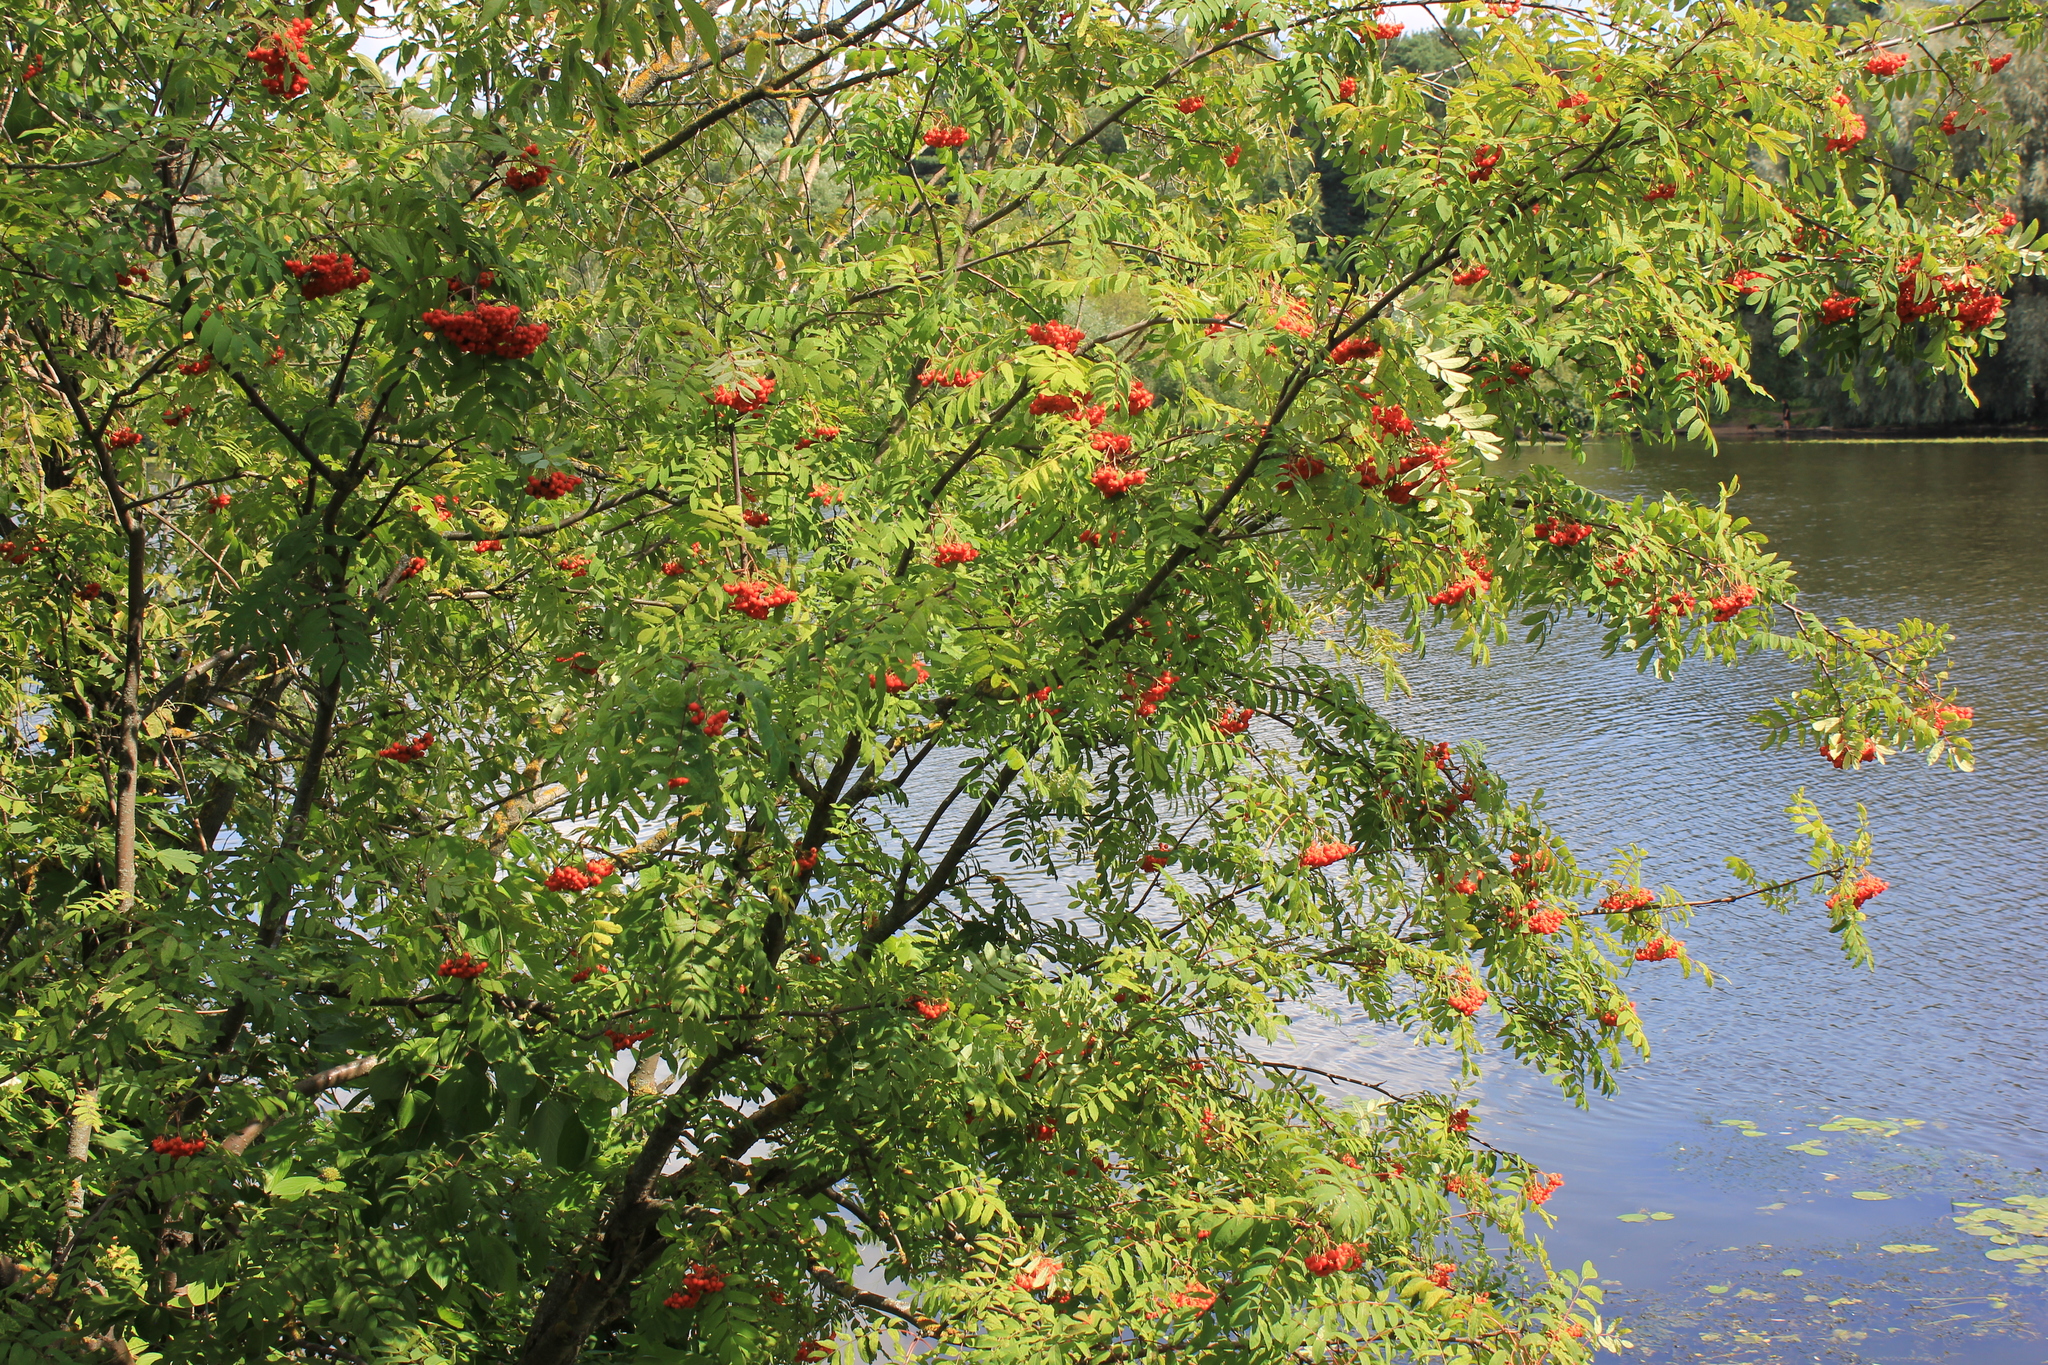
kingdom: Plantae
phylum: Tracheophyta
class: Magnoliopsida
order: Rosales
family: Rosaceae
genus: Sorbus
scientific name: Sorbus aucuparia
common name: Rowan
